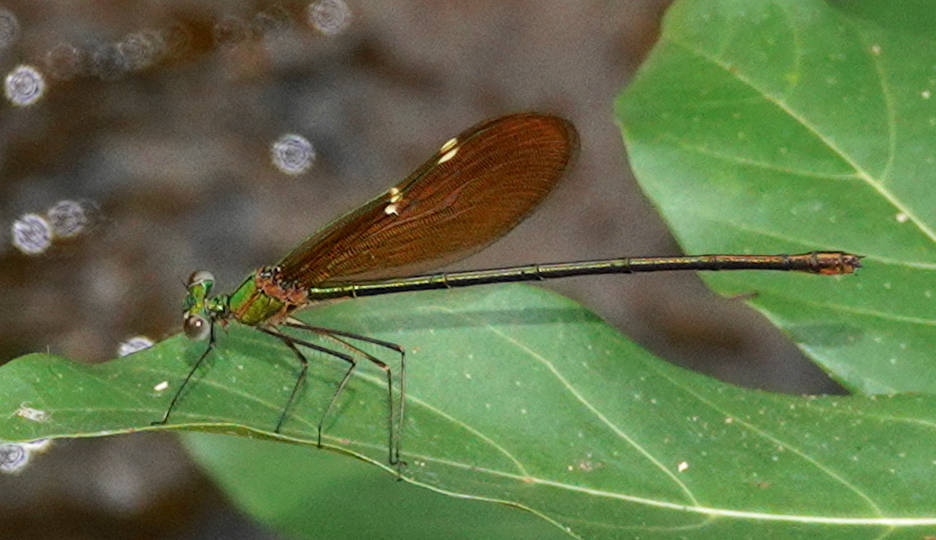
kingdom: Animalia
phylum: Arthropoda
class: Insecta
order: Odonata
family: Calopterygidae
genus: Neurobasis
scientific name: Neurobasis chinensis
